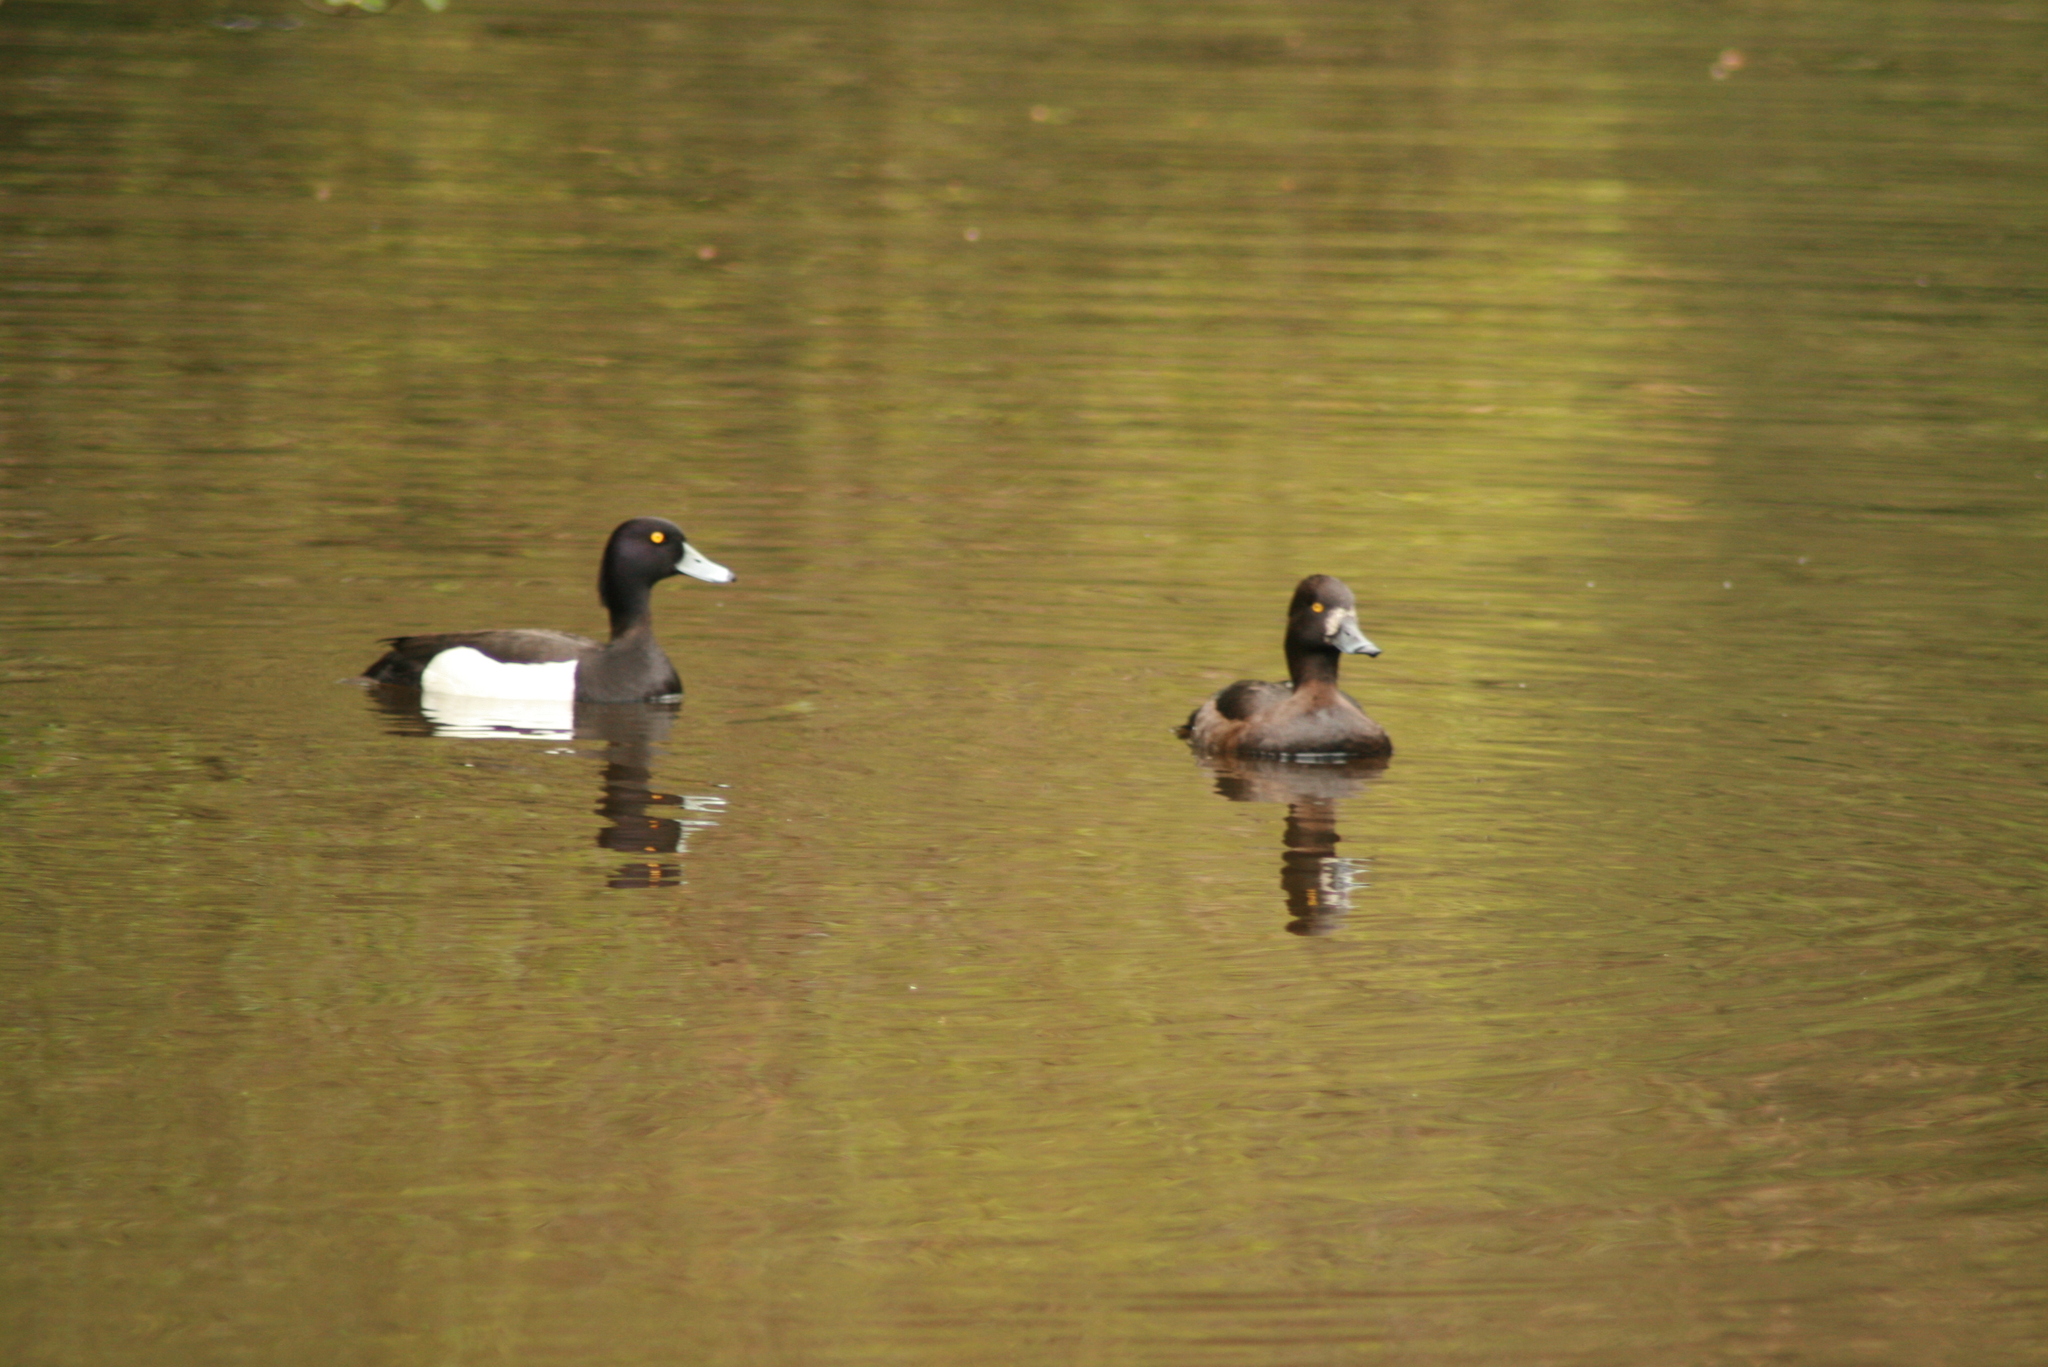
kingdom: Animalia
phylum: Chordata
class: Aves
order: Anseriformes
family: Anatidae
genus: Aythya
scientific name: Aythya fuligula
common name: Tufted duck
